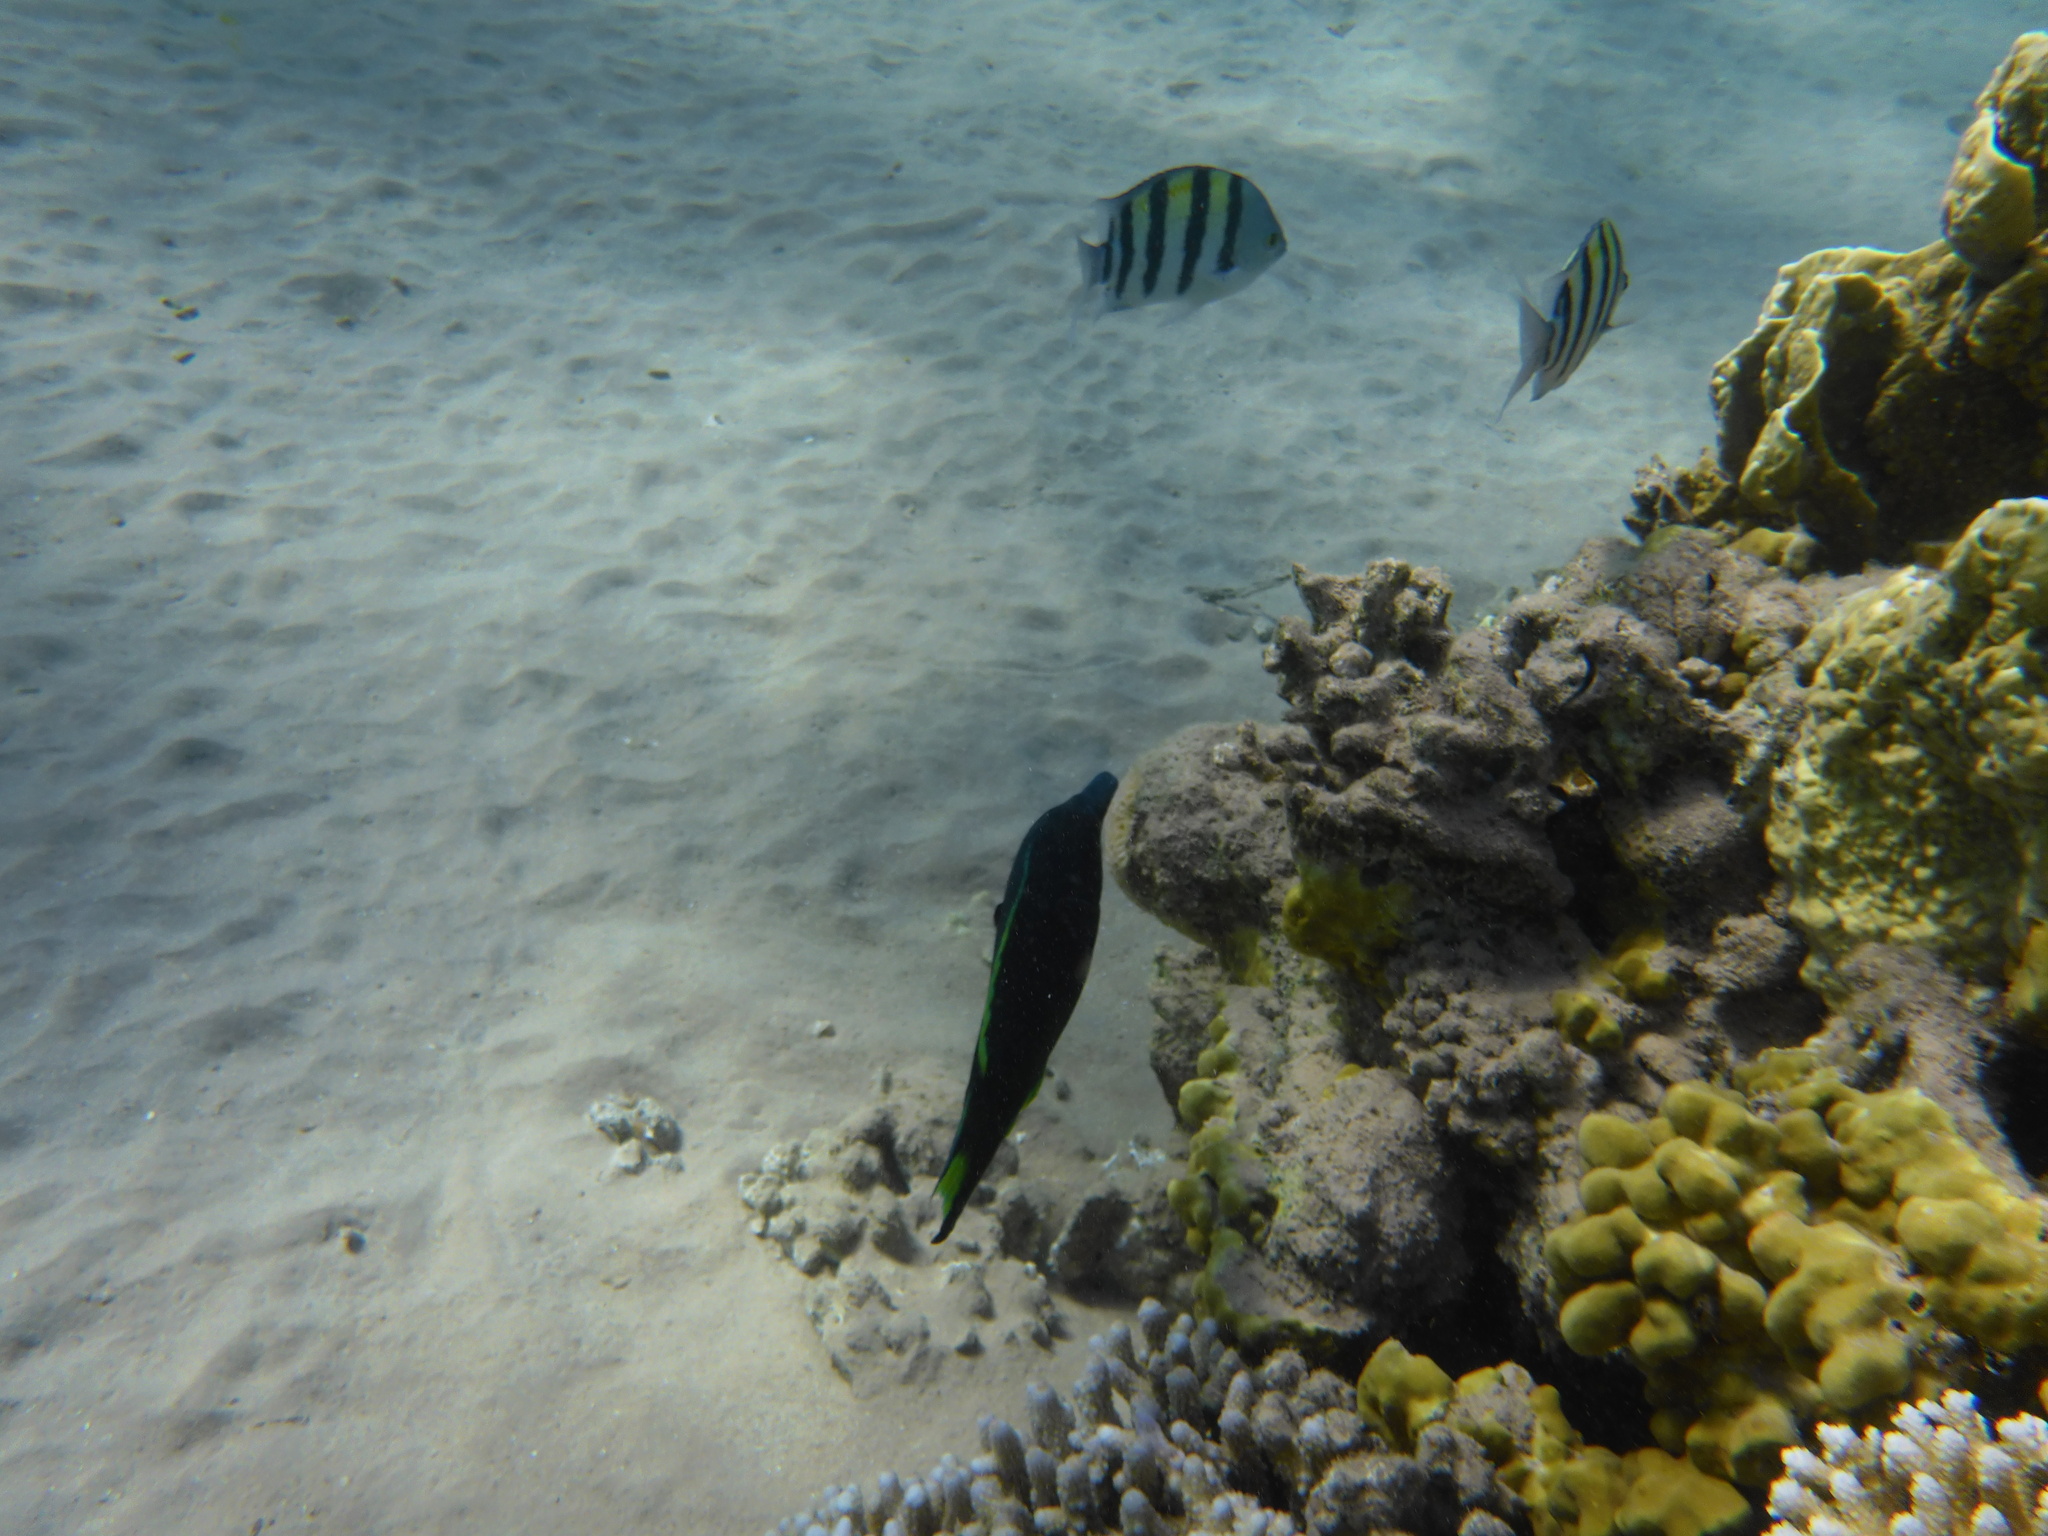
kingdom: Animalia
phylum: Chordata
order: Perciformes
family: Labridae
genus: Gomphosus
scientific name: Gomphosus klunzingeri
